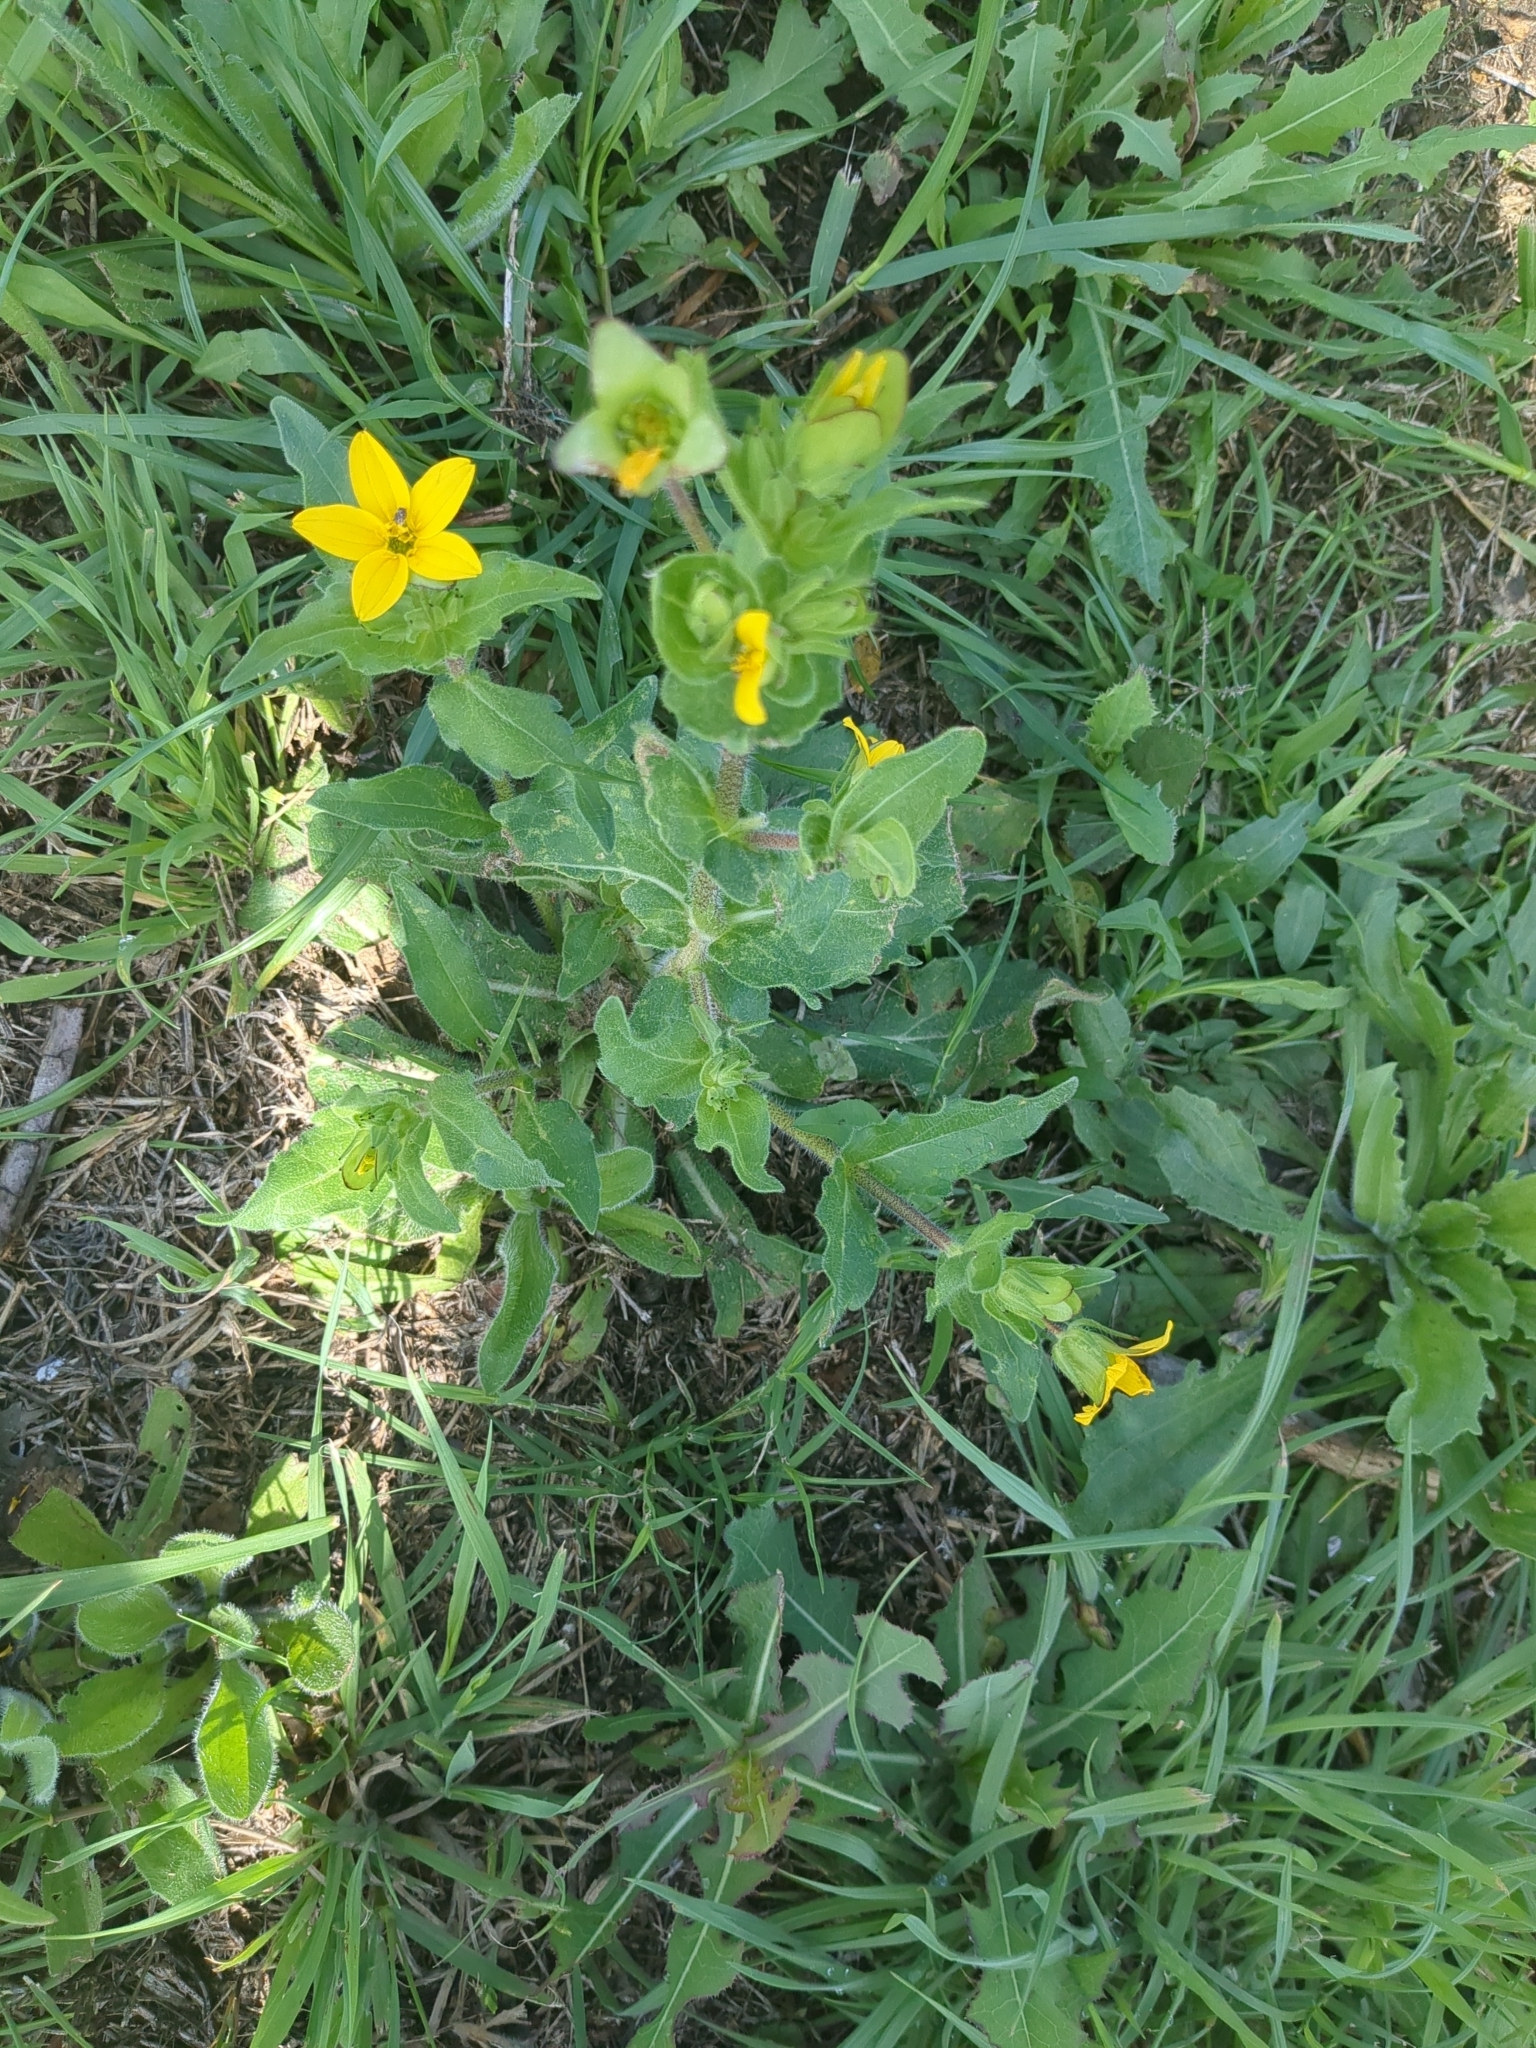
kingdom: Plantae
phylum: Tracheophyta
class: Magnoliopsida
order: Asterales
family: Asteraceae
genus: Lindheimera
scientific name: Lindheimera texana
